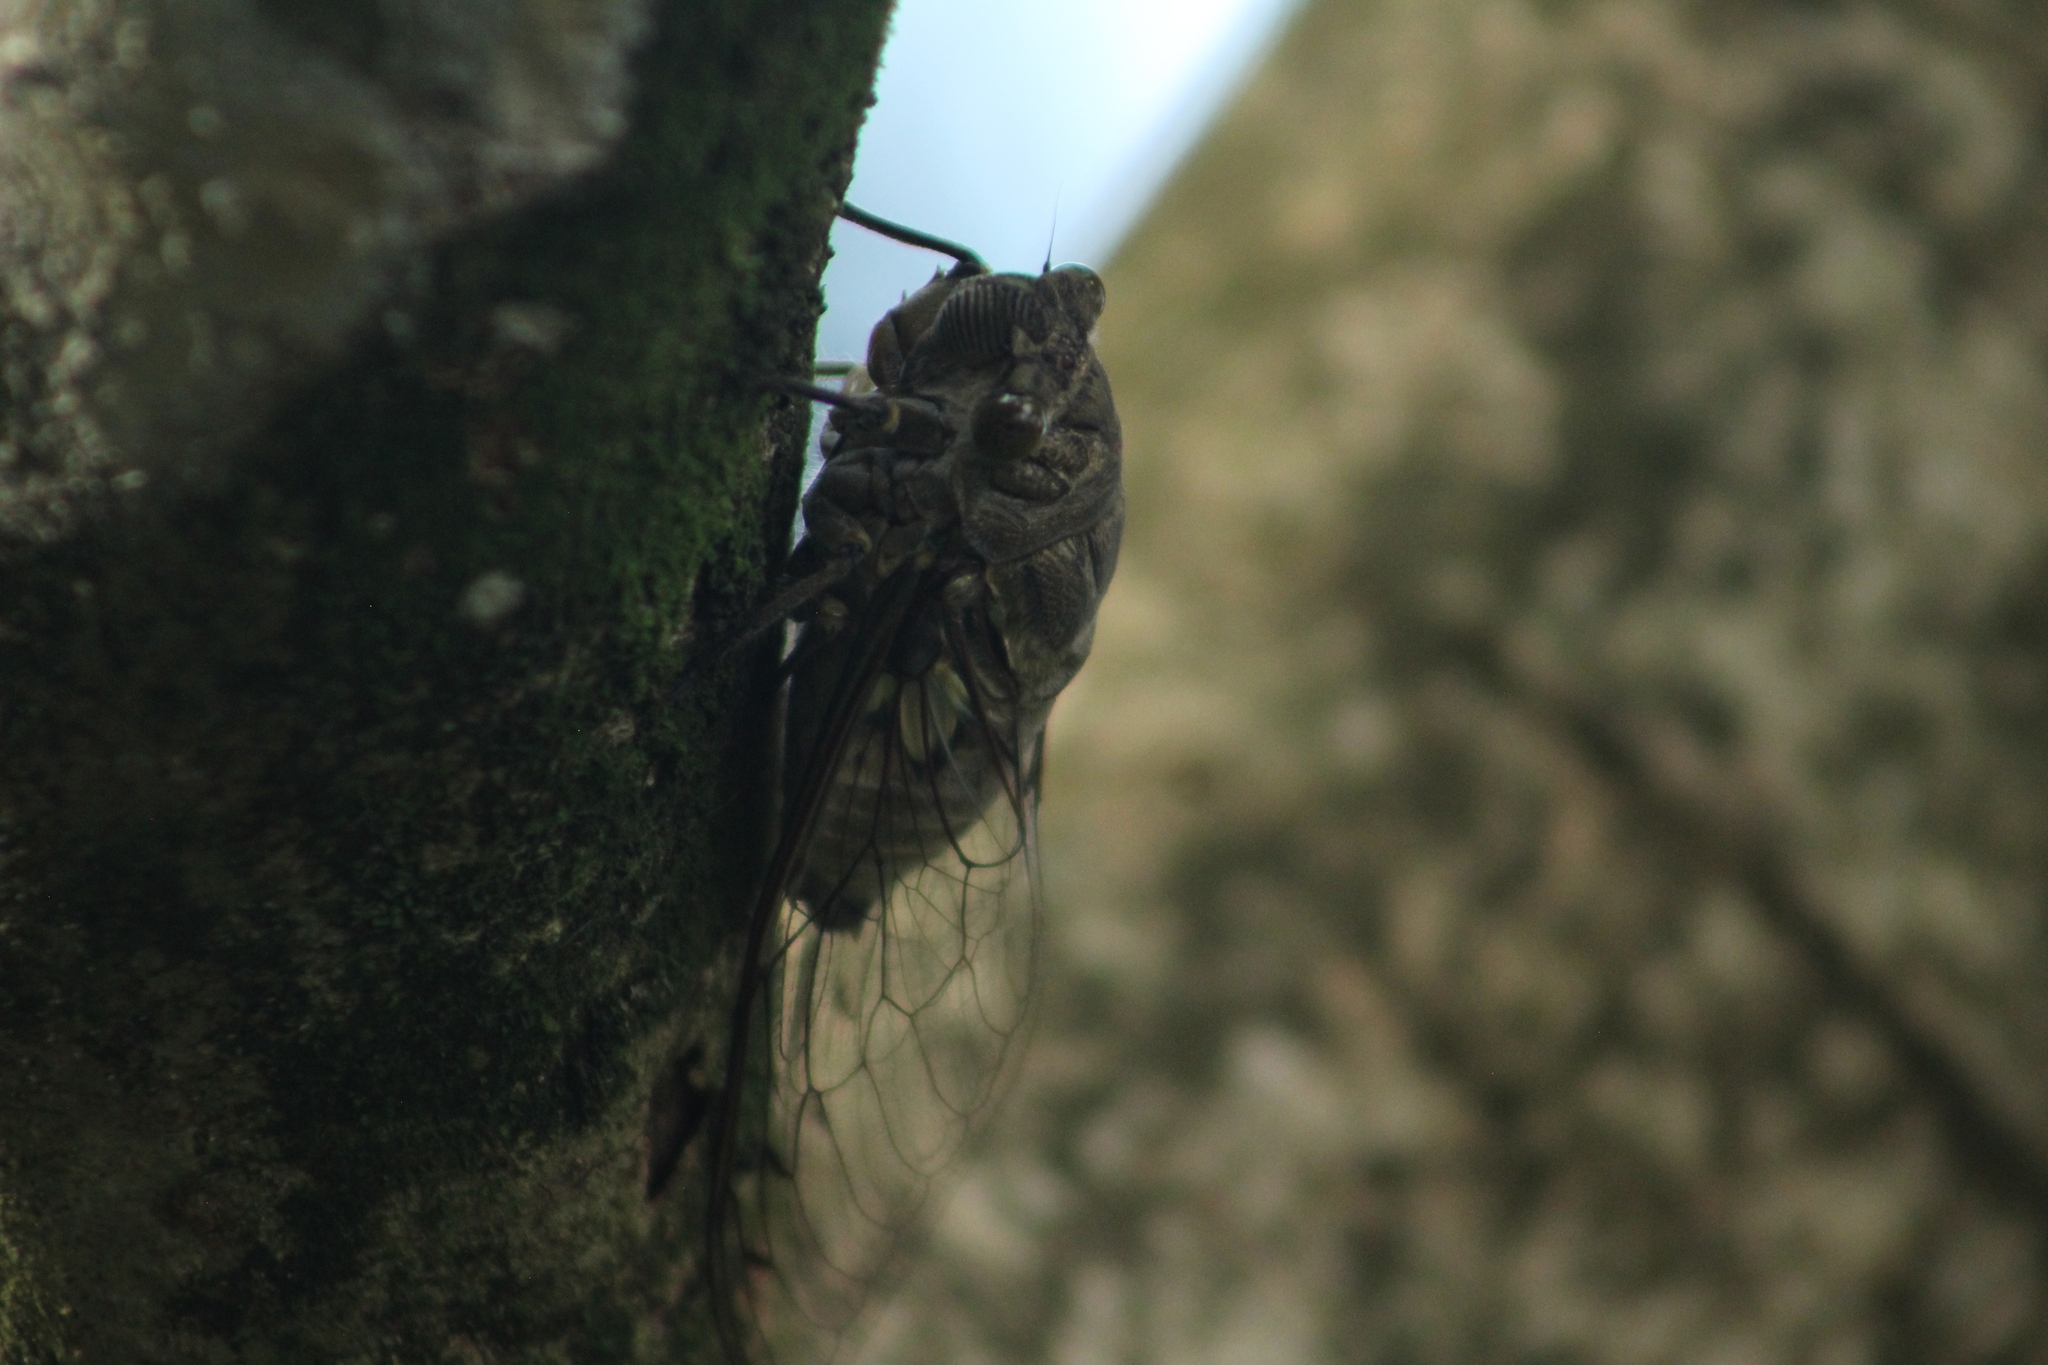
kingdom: Animalia
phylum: Arthropoda
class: Insecta
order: Hemiptera
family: Cicadidae
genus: Quesada
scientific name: Quesada gigas
